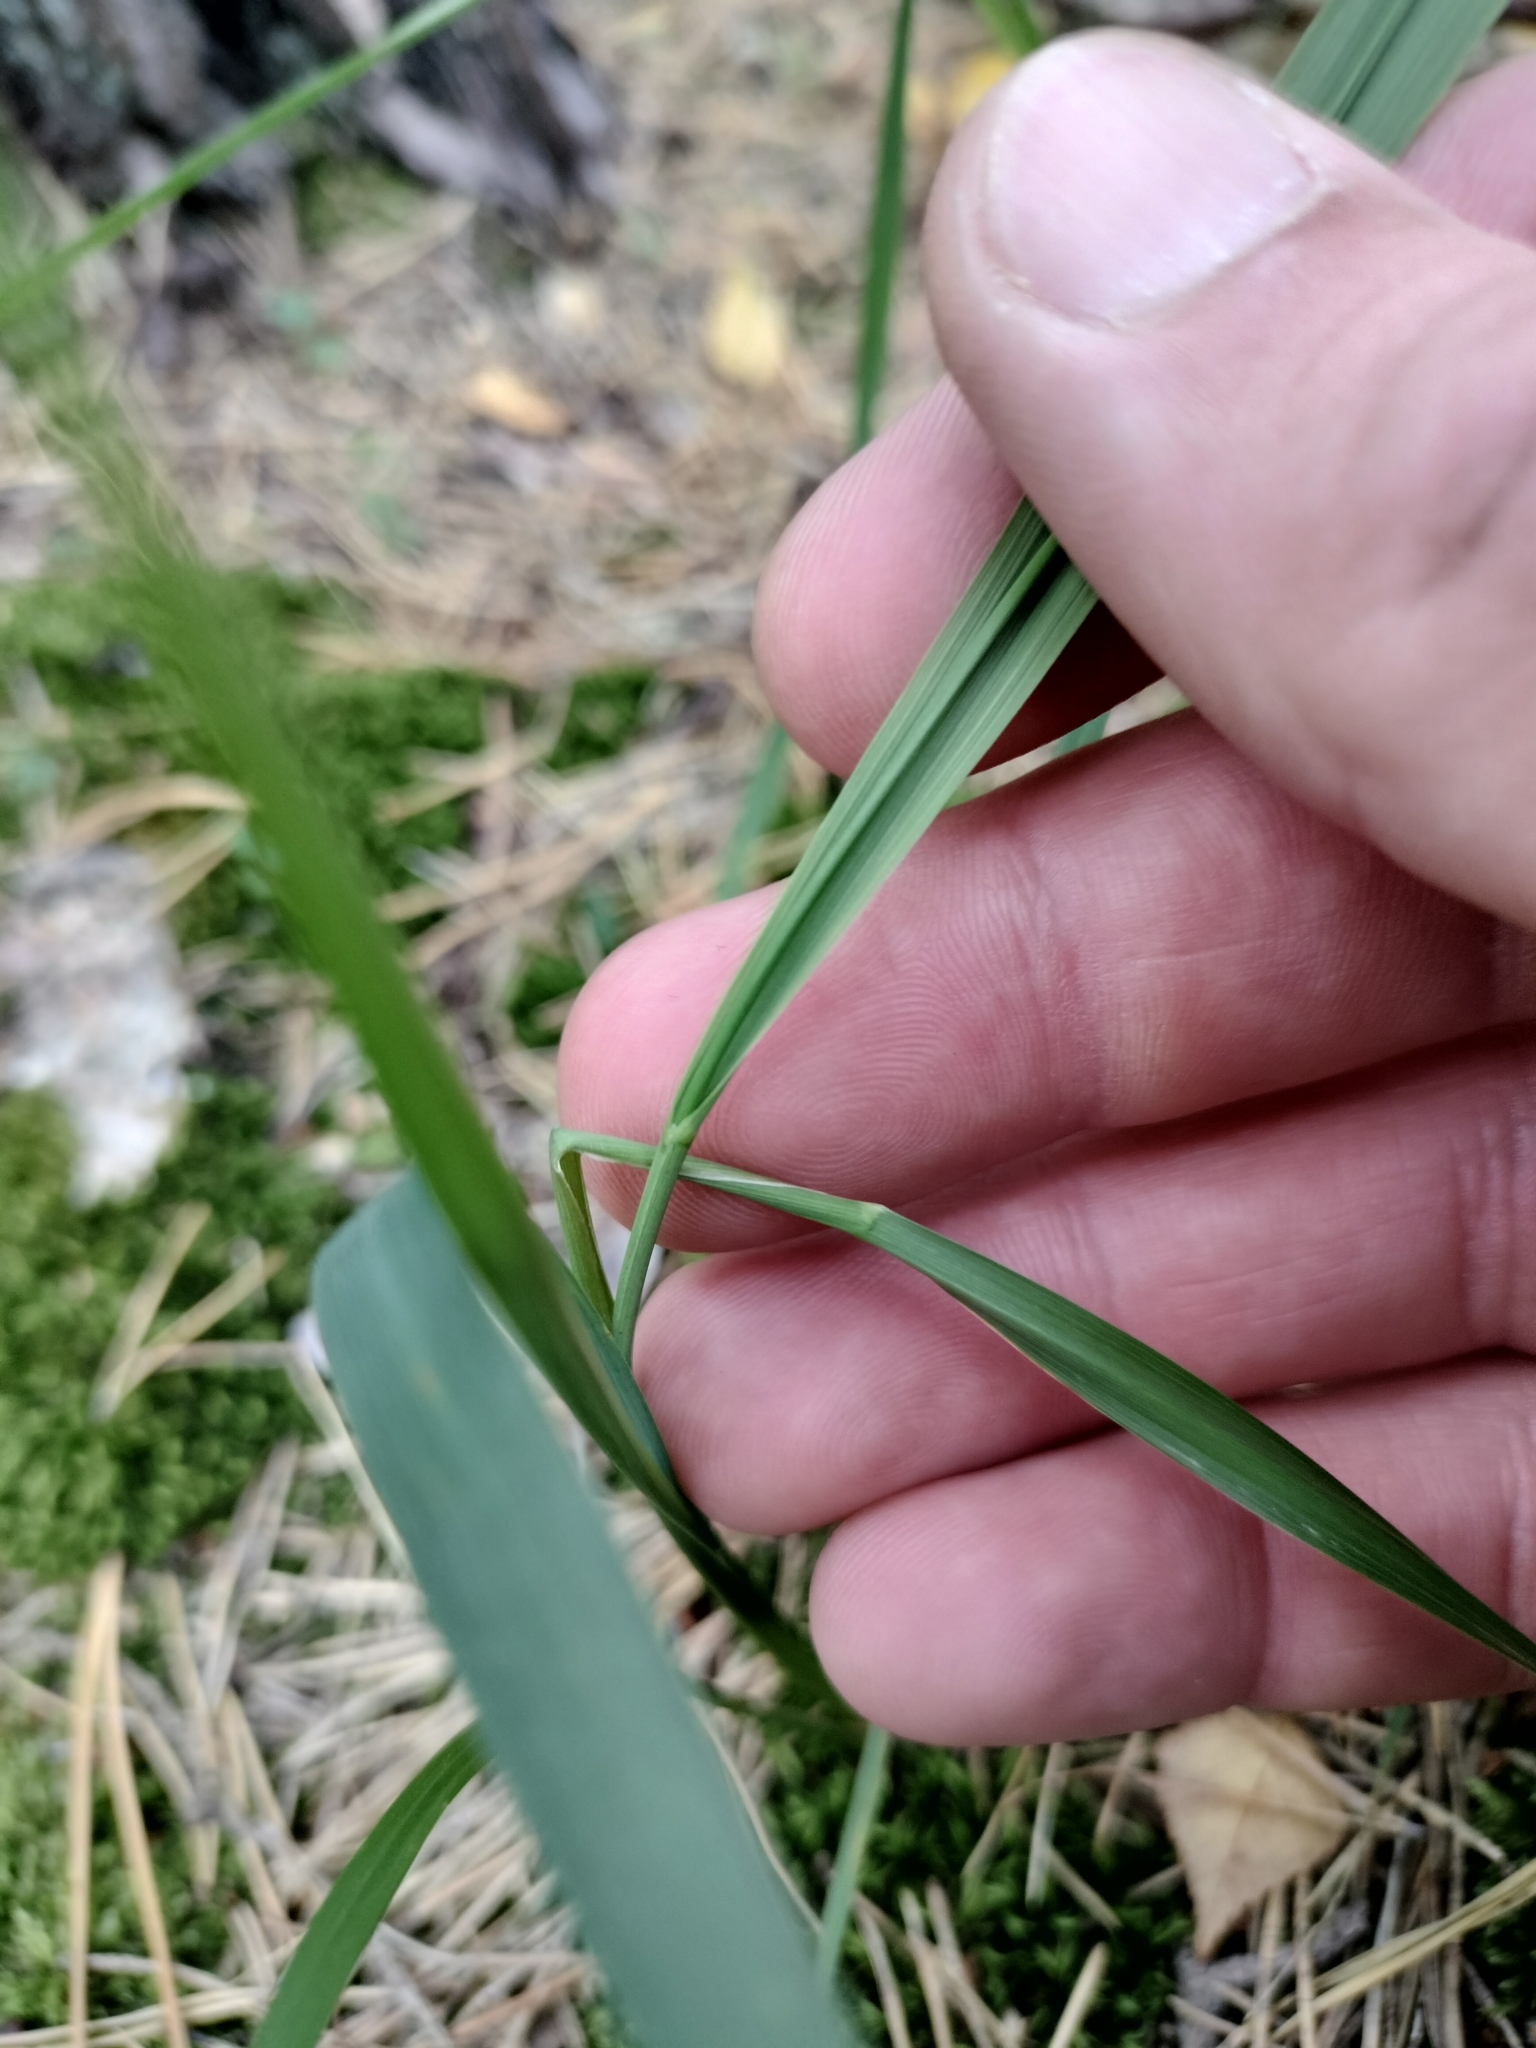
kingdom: Plantae
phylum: Tracheophyta
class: Liliopsida
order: Poales
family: Poaceae
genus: Calamagrostis
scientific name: Calamagrostis epigejos
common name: Wood small-reed
